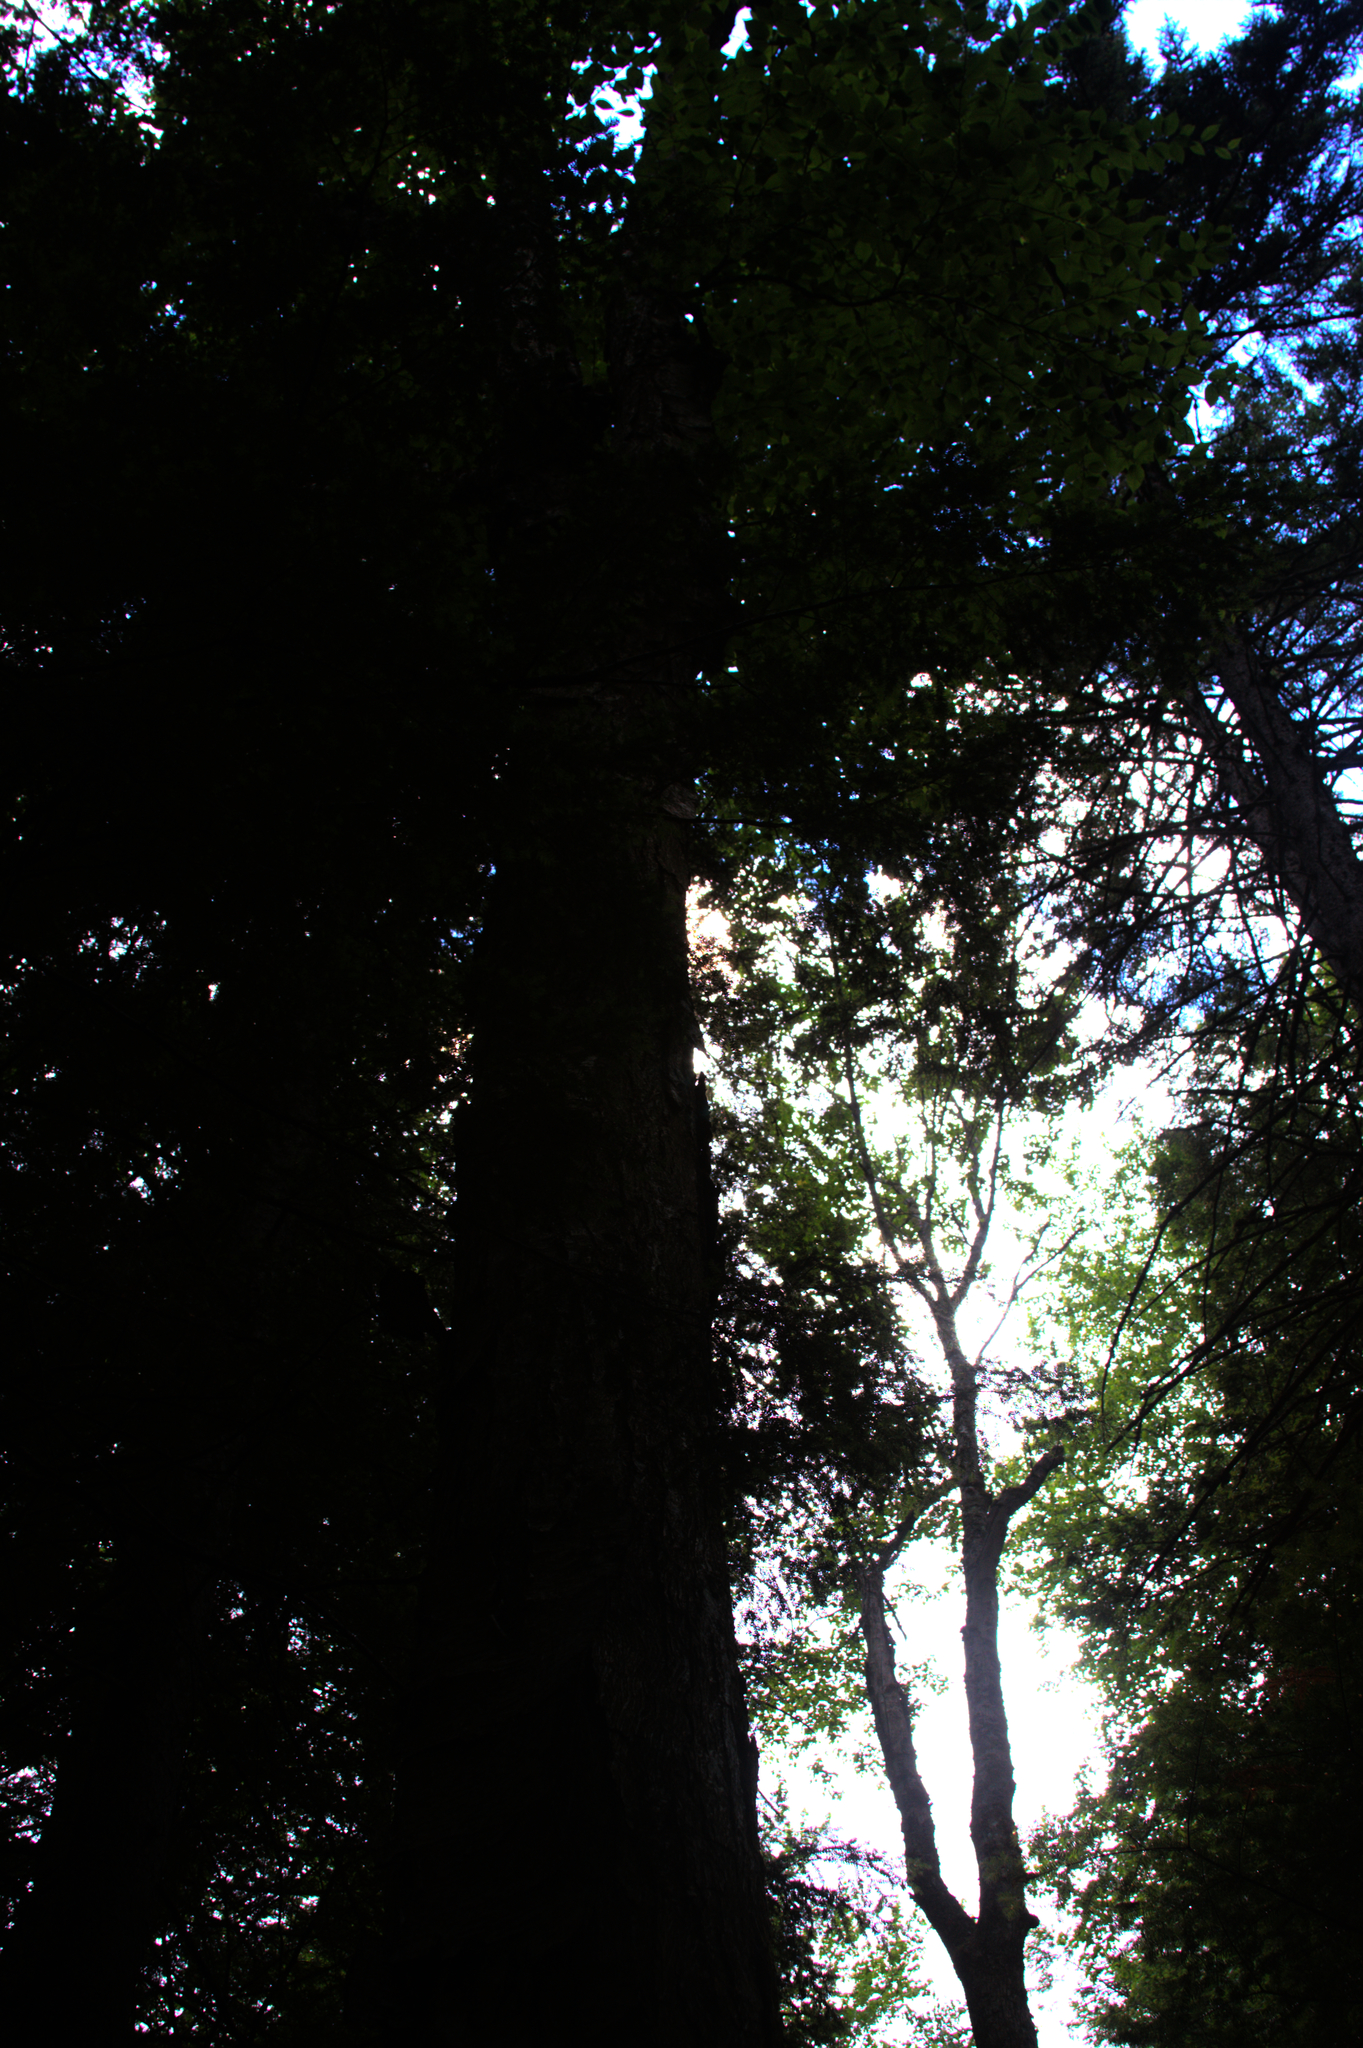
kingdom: Plantae
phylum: Tracheophyta
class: Magnoliopsida
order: Fagales
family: Betulaceae
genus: Betula
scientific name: Betula alleghaniensis
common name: Yellow birch
